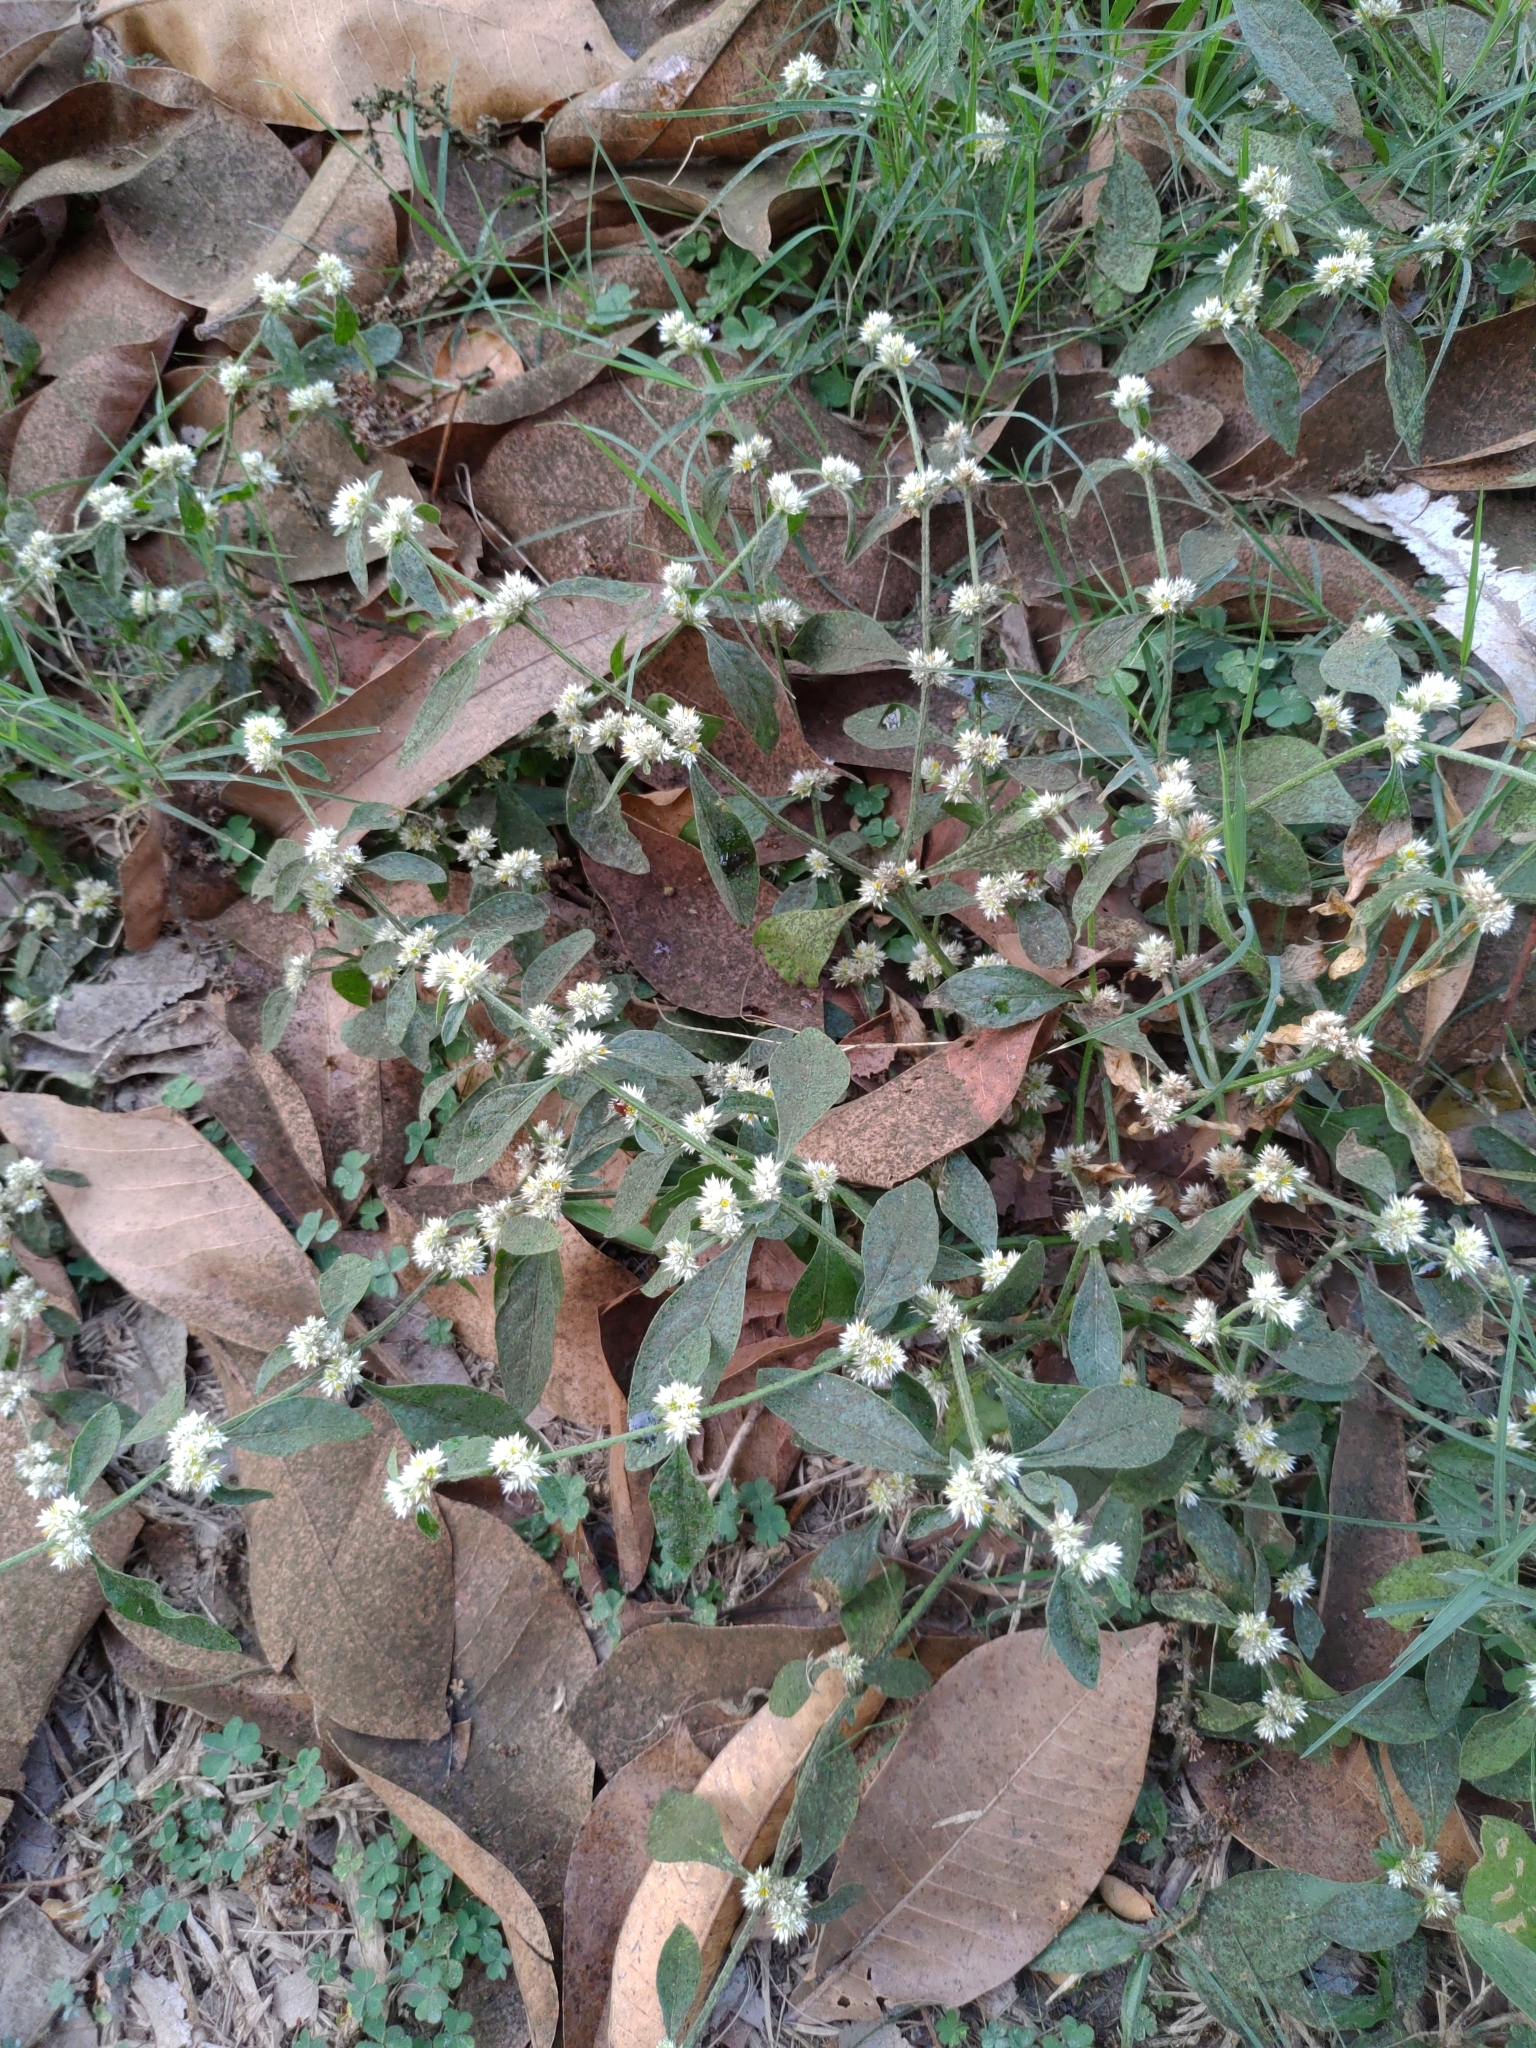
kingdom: Plantae
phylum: Tracheophyta
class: Magnoliopsida
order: Caryophyllales
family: Amaranthaceae
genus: Alternanthera
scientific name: Alternanthera ficoidea
